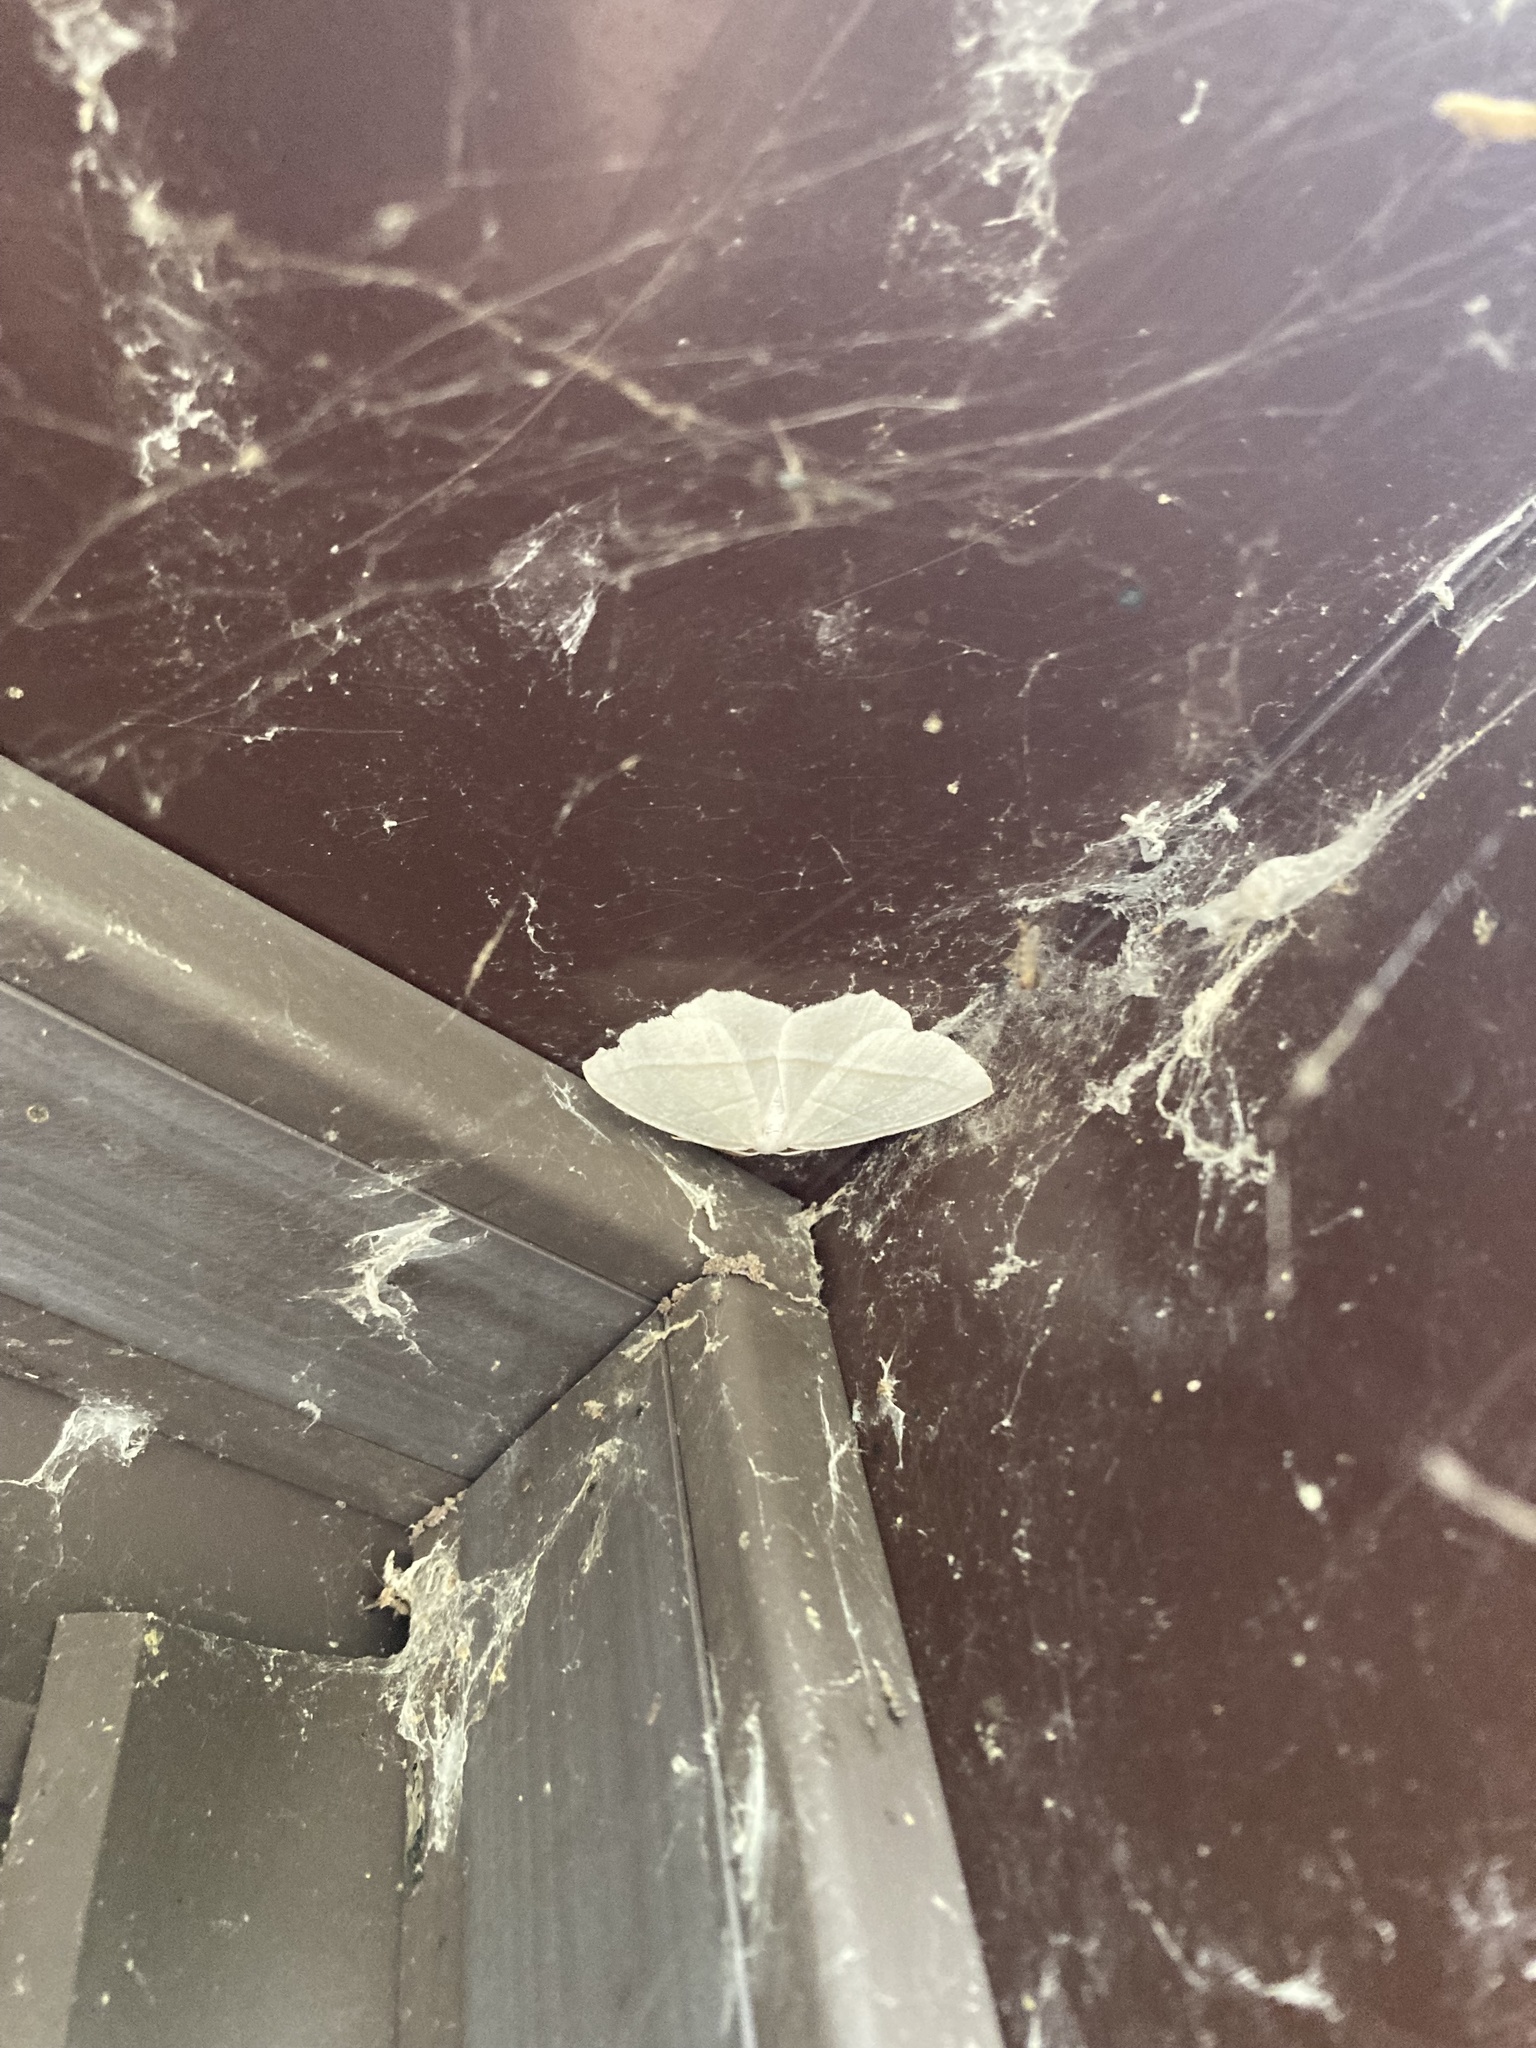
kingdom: Animalia
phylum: Arthropoda
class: Insecta
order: Lepidoptera
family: Geometridae
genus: Campaea
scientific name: Campaea perlata
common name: Fringed looper
